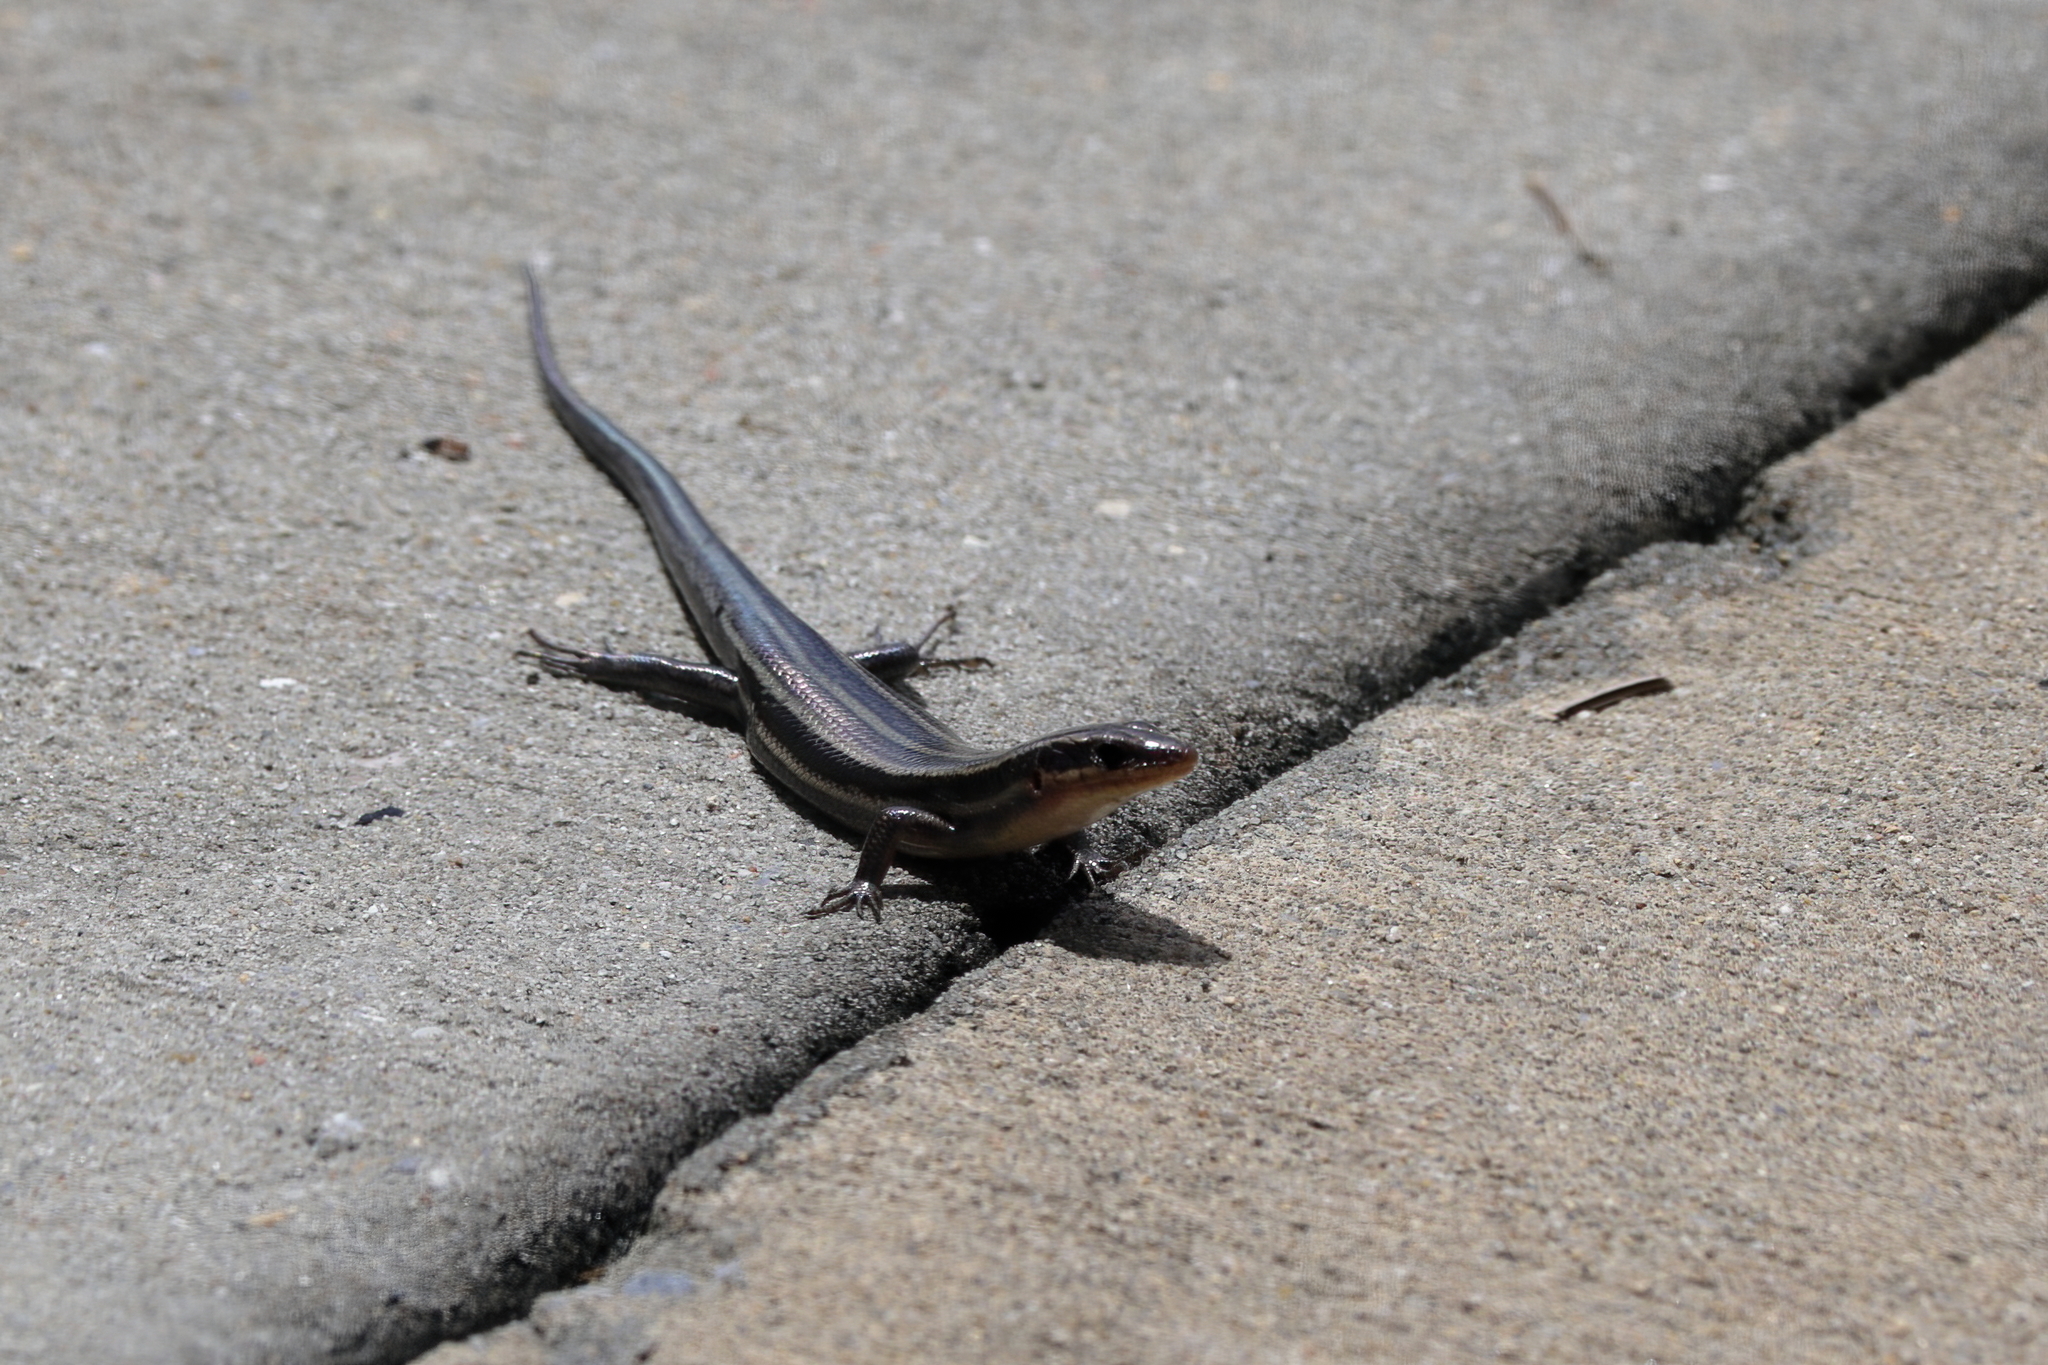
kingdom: Animalia
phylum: Chordata
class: Squamata
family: Scincidae
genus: Plestiodon
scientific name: Plestiodon fasciatus
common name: Five-lined skink
